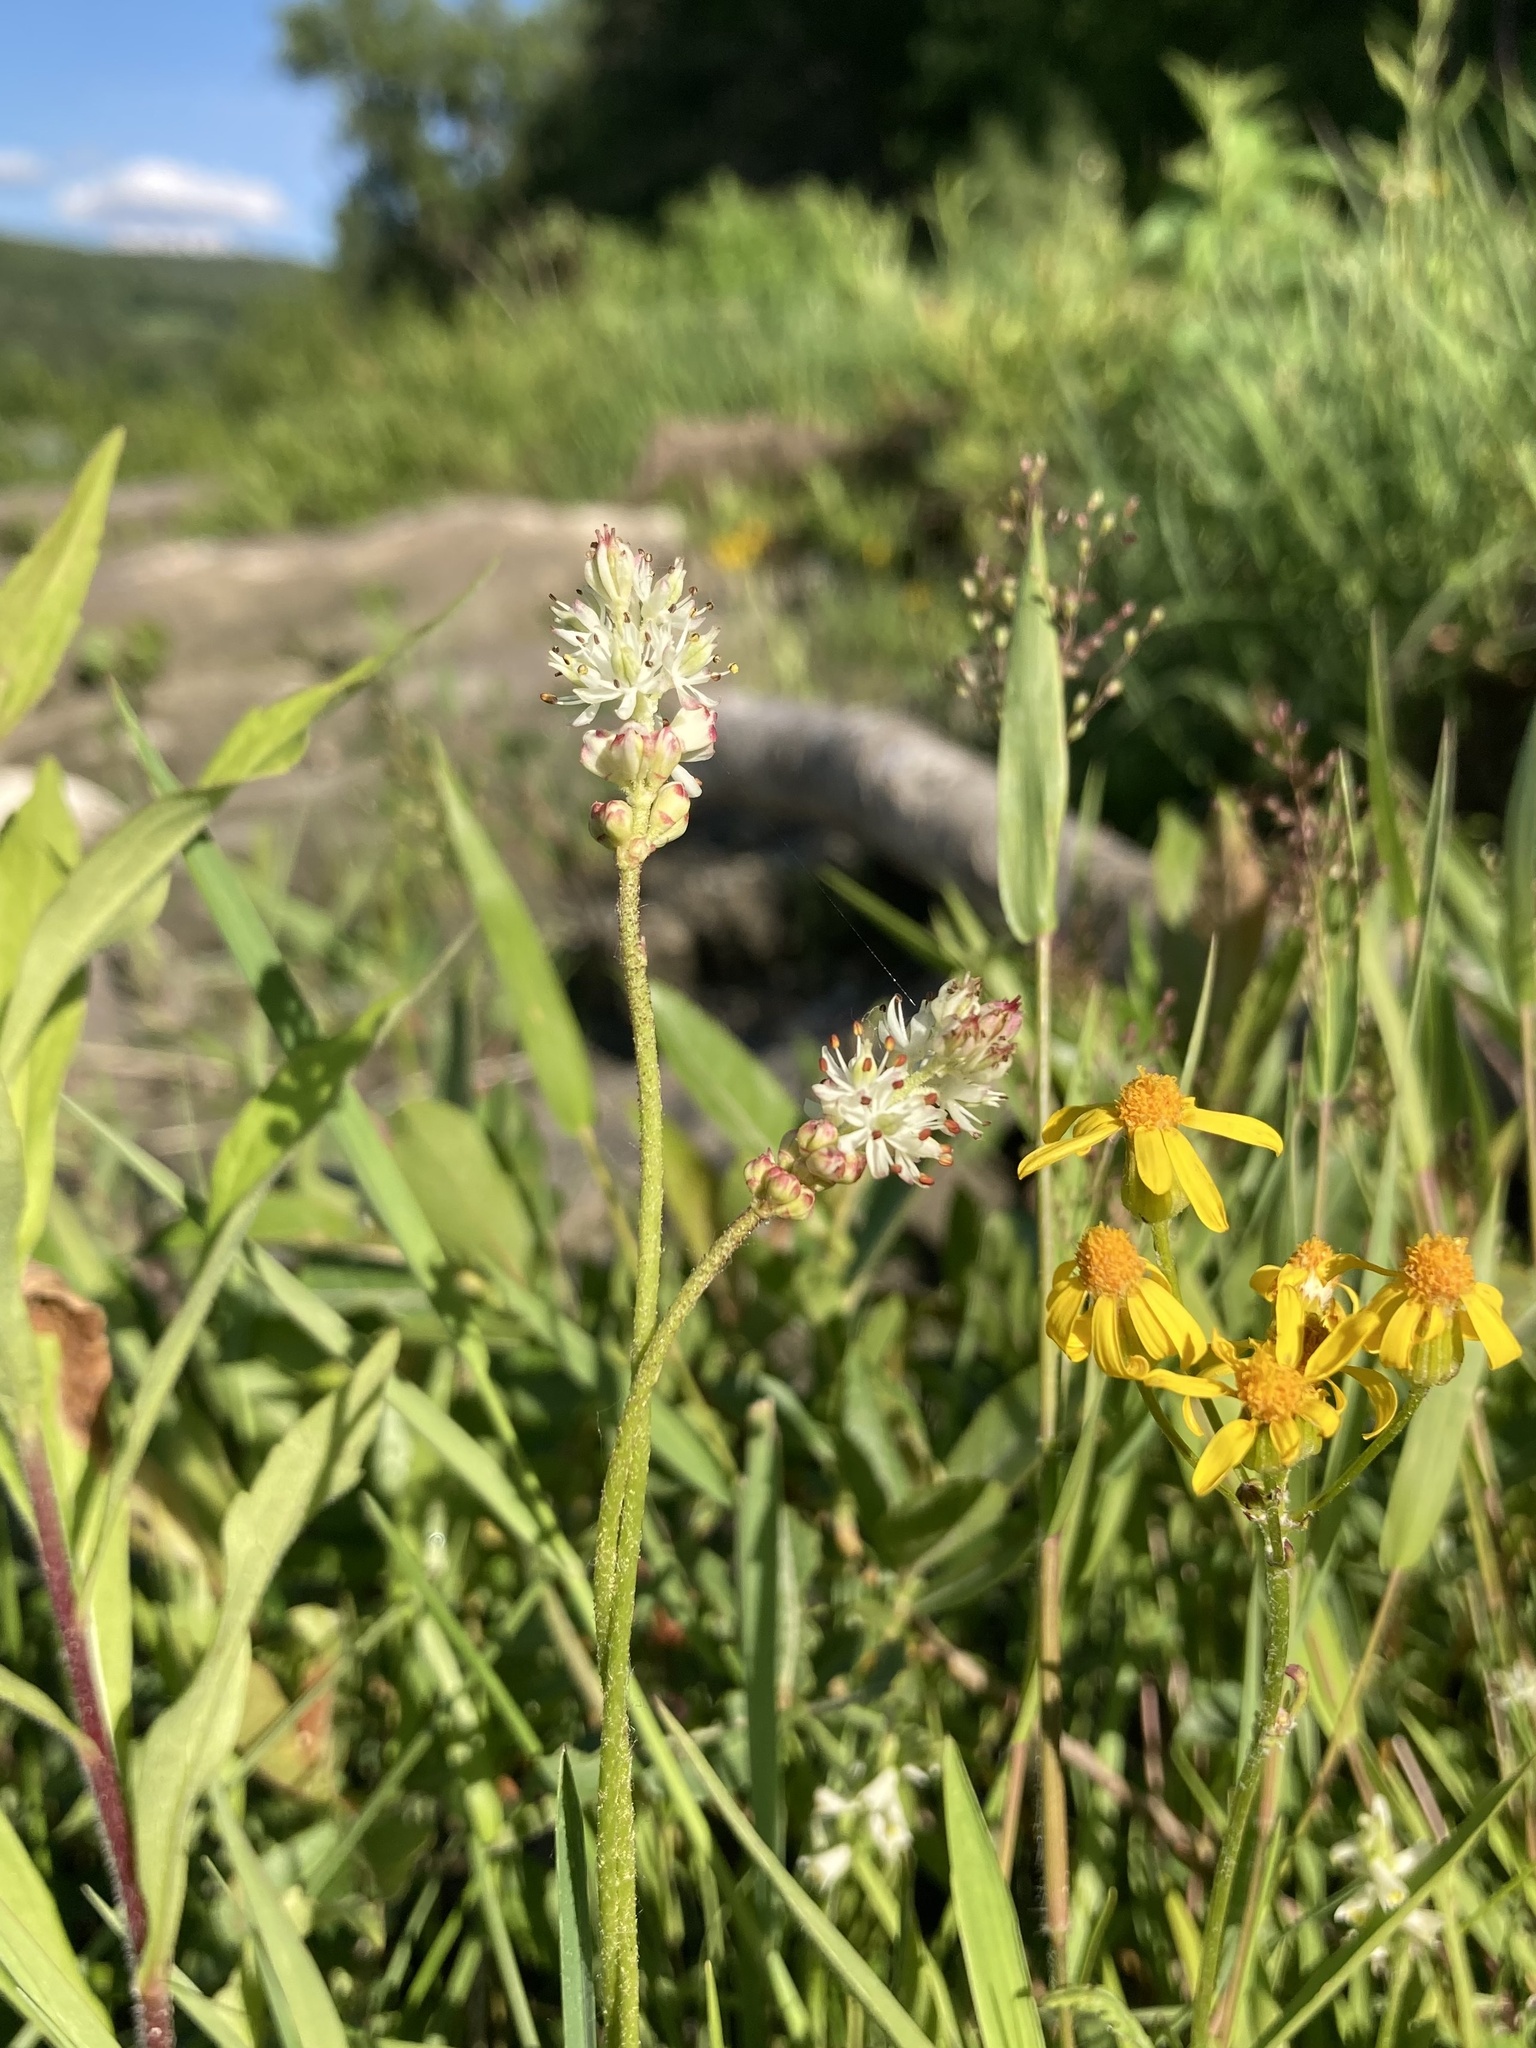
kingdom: Plantae
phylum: Tracheophyta
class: Liliopsida
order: Alismatales
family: Tofieldiaceae
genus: Triantha
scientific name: Triantha glutinosa
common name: Glutinous tofieldia
